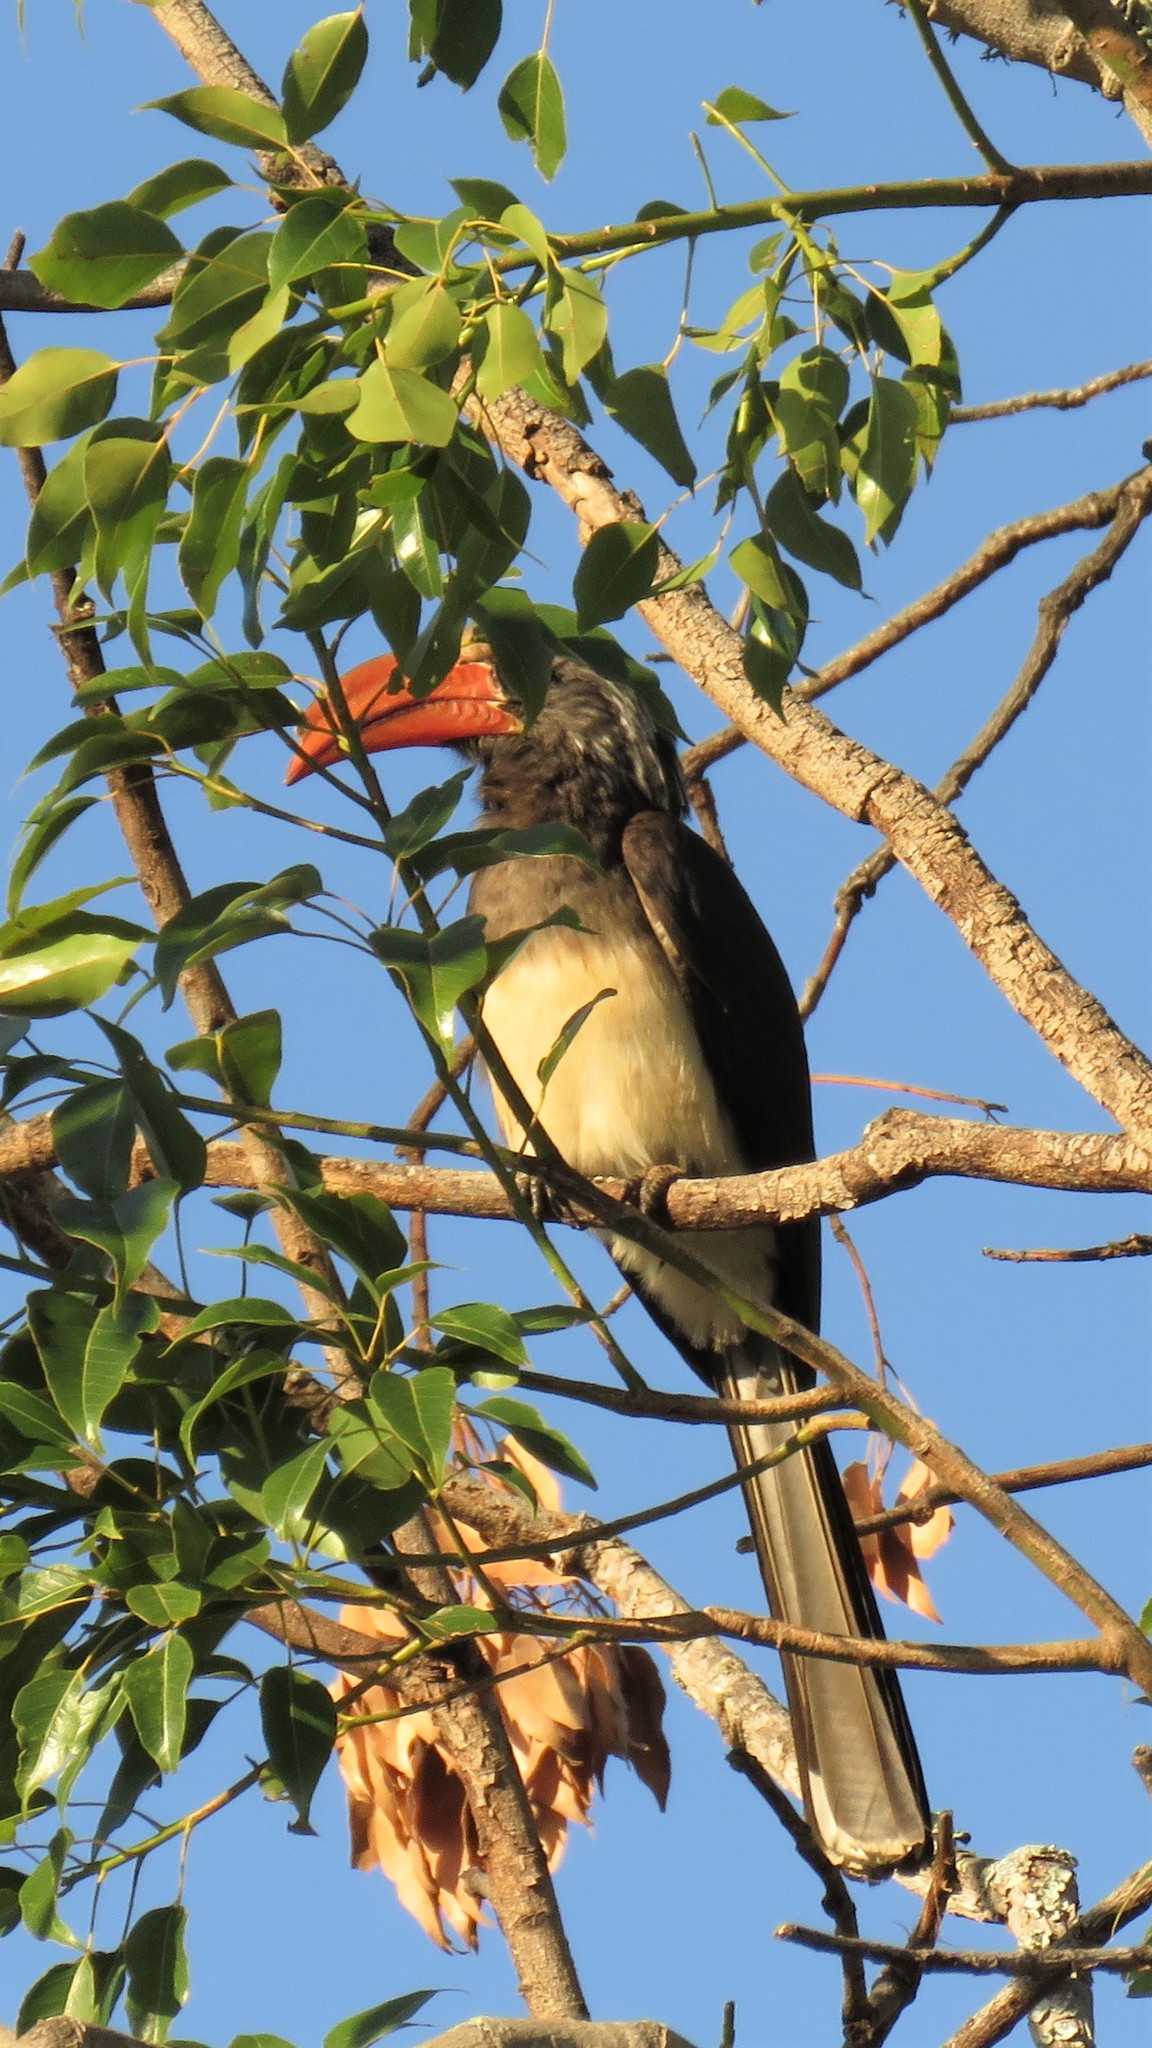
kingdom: Animalia
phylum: Chordata
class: Aves
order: Bucerotiformes
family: Bucerotidae
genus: Lophoceros
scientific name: Lophoceros alboterminatus
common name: Crowned hornbill
